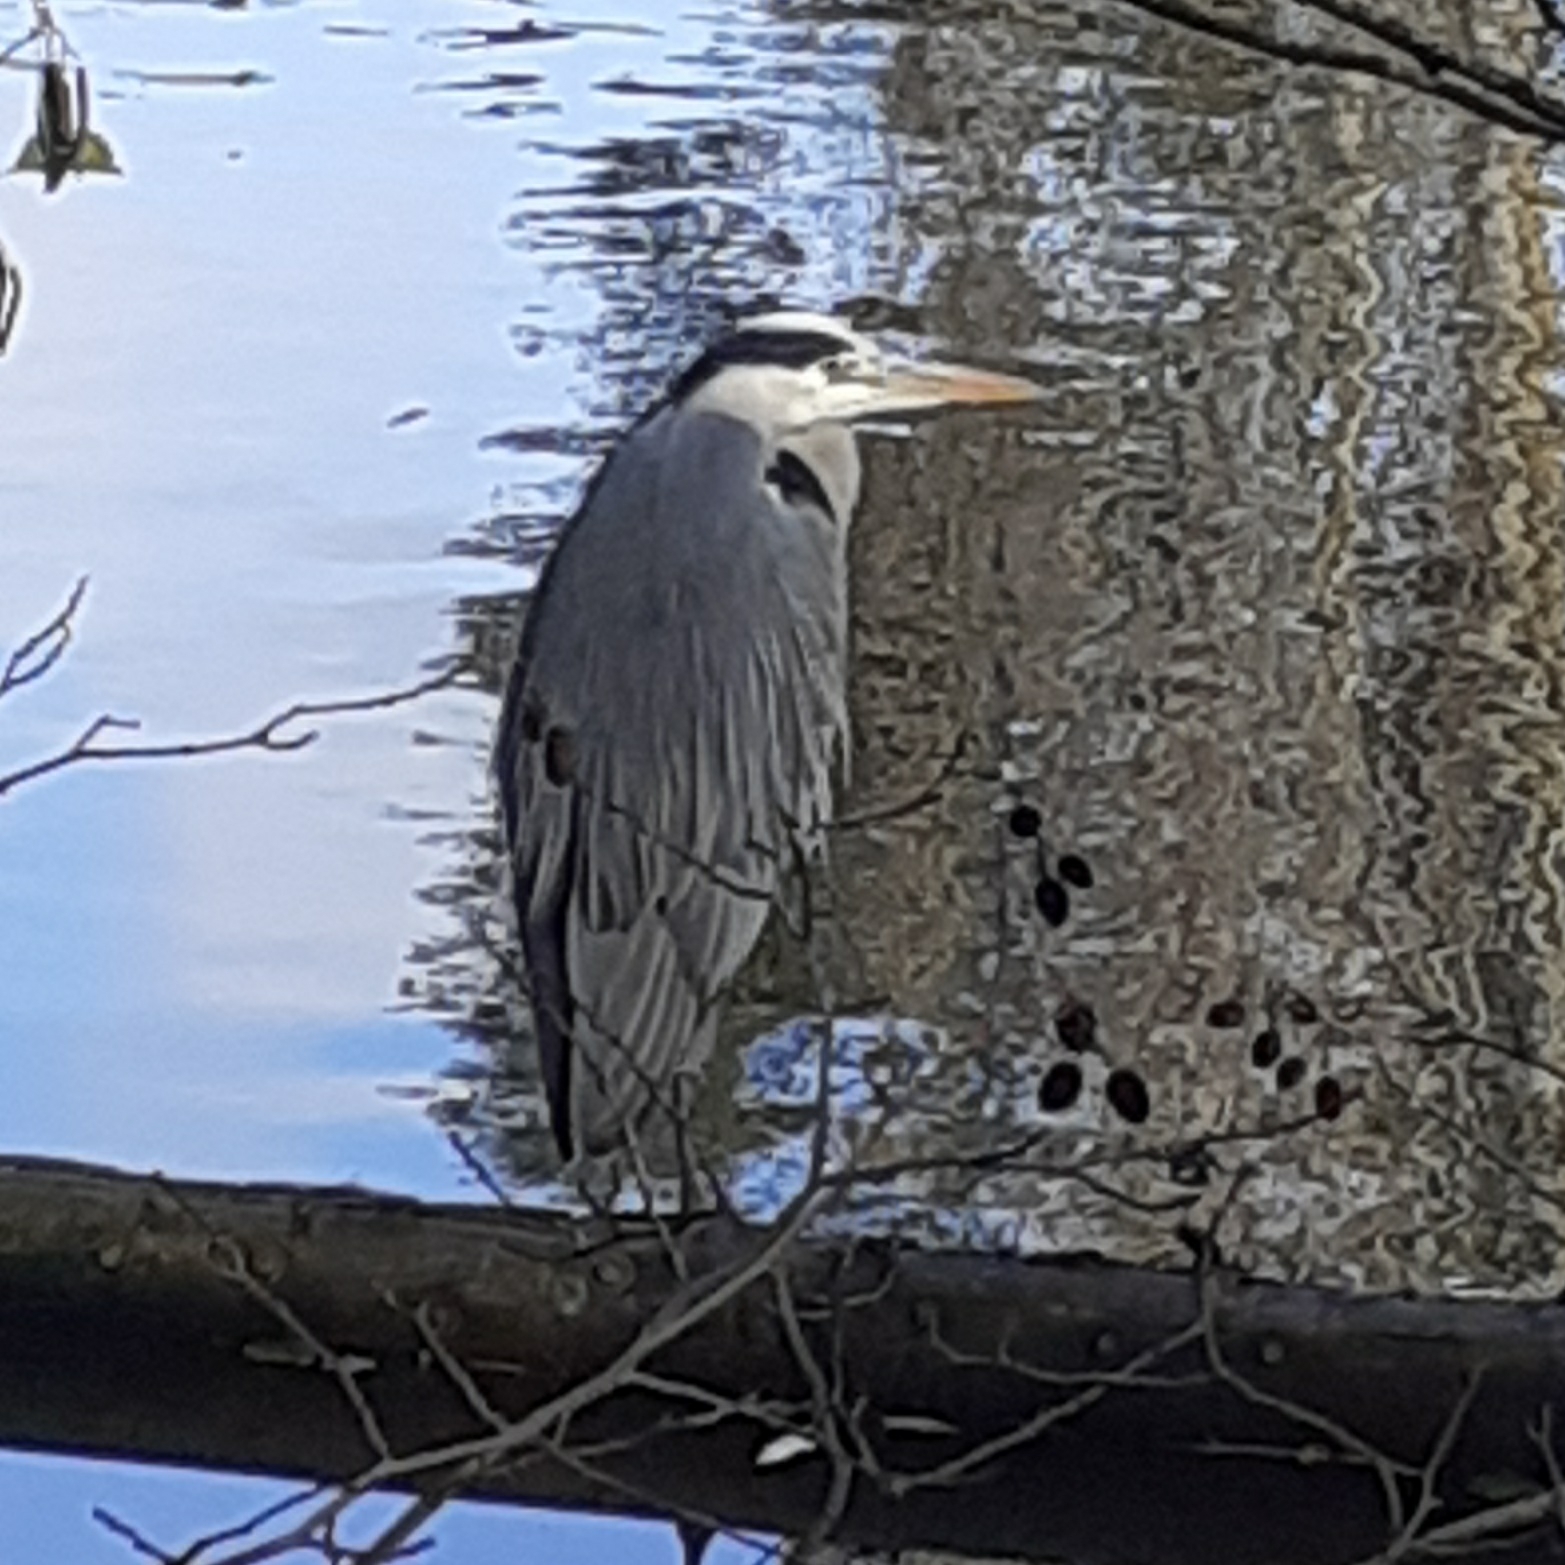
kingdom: Animalia
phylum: Chordata
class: Aves
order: Pelecaniformes
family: Ardeidae
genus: Ardea
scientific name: Ardea cinerea
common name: Grey heron
